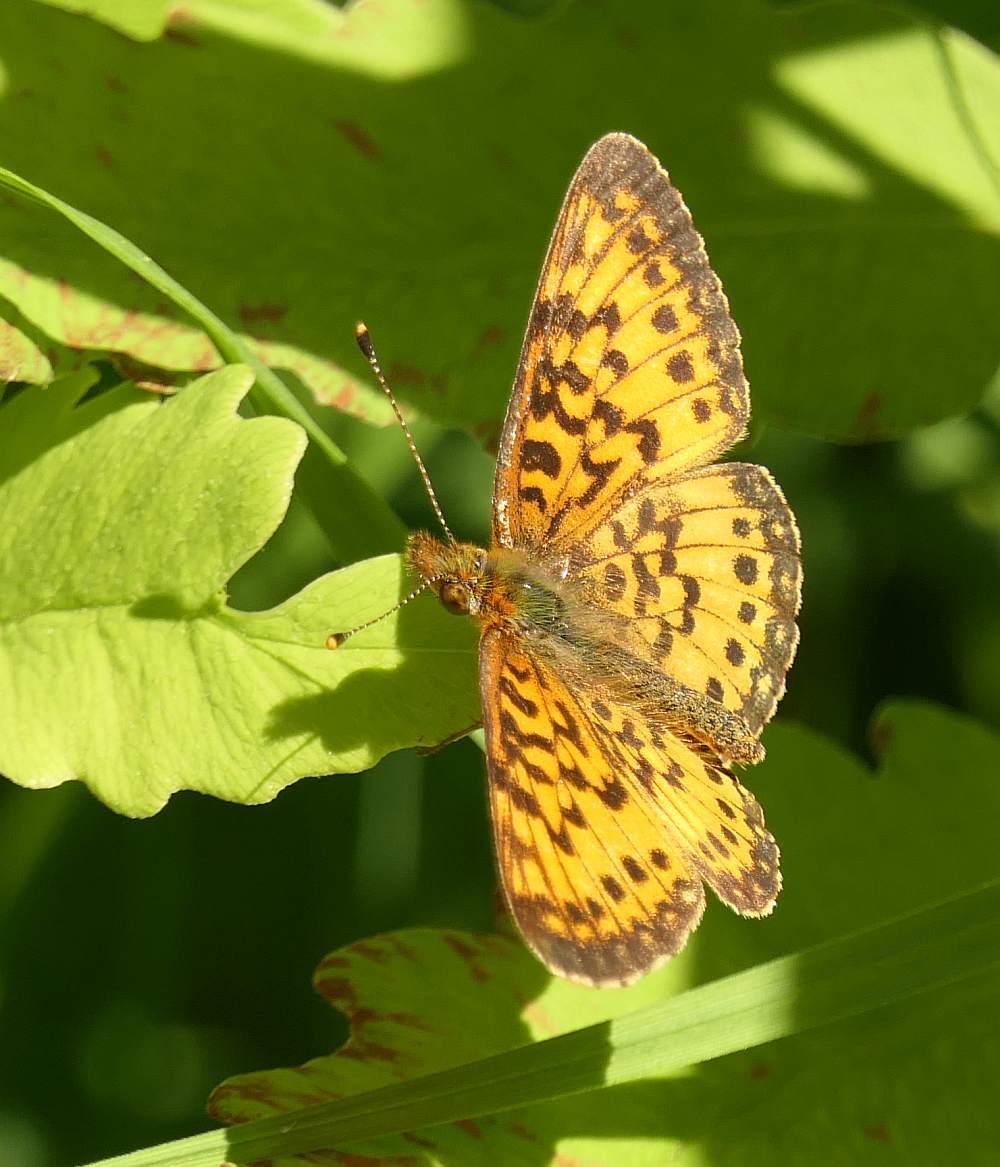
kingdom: Animalia
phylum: Arthropoda
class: Insecta
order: Lepidoptera
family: Nymphalidae
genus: Boloria
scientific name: Boloria
